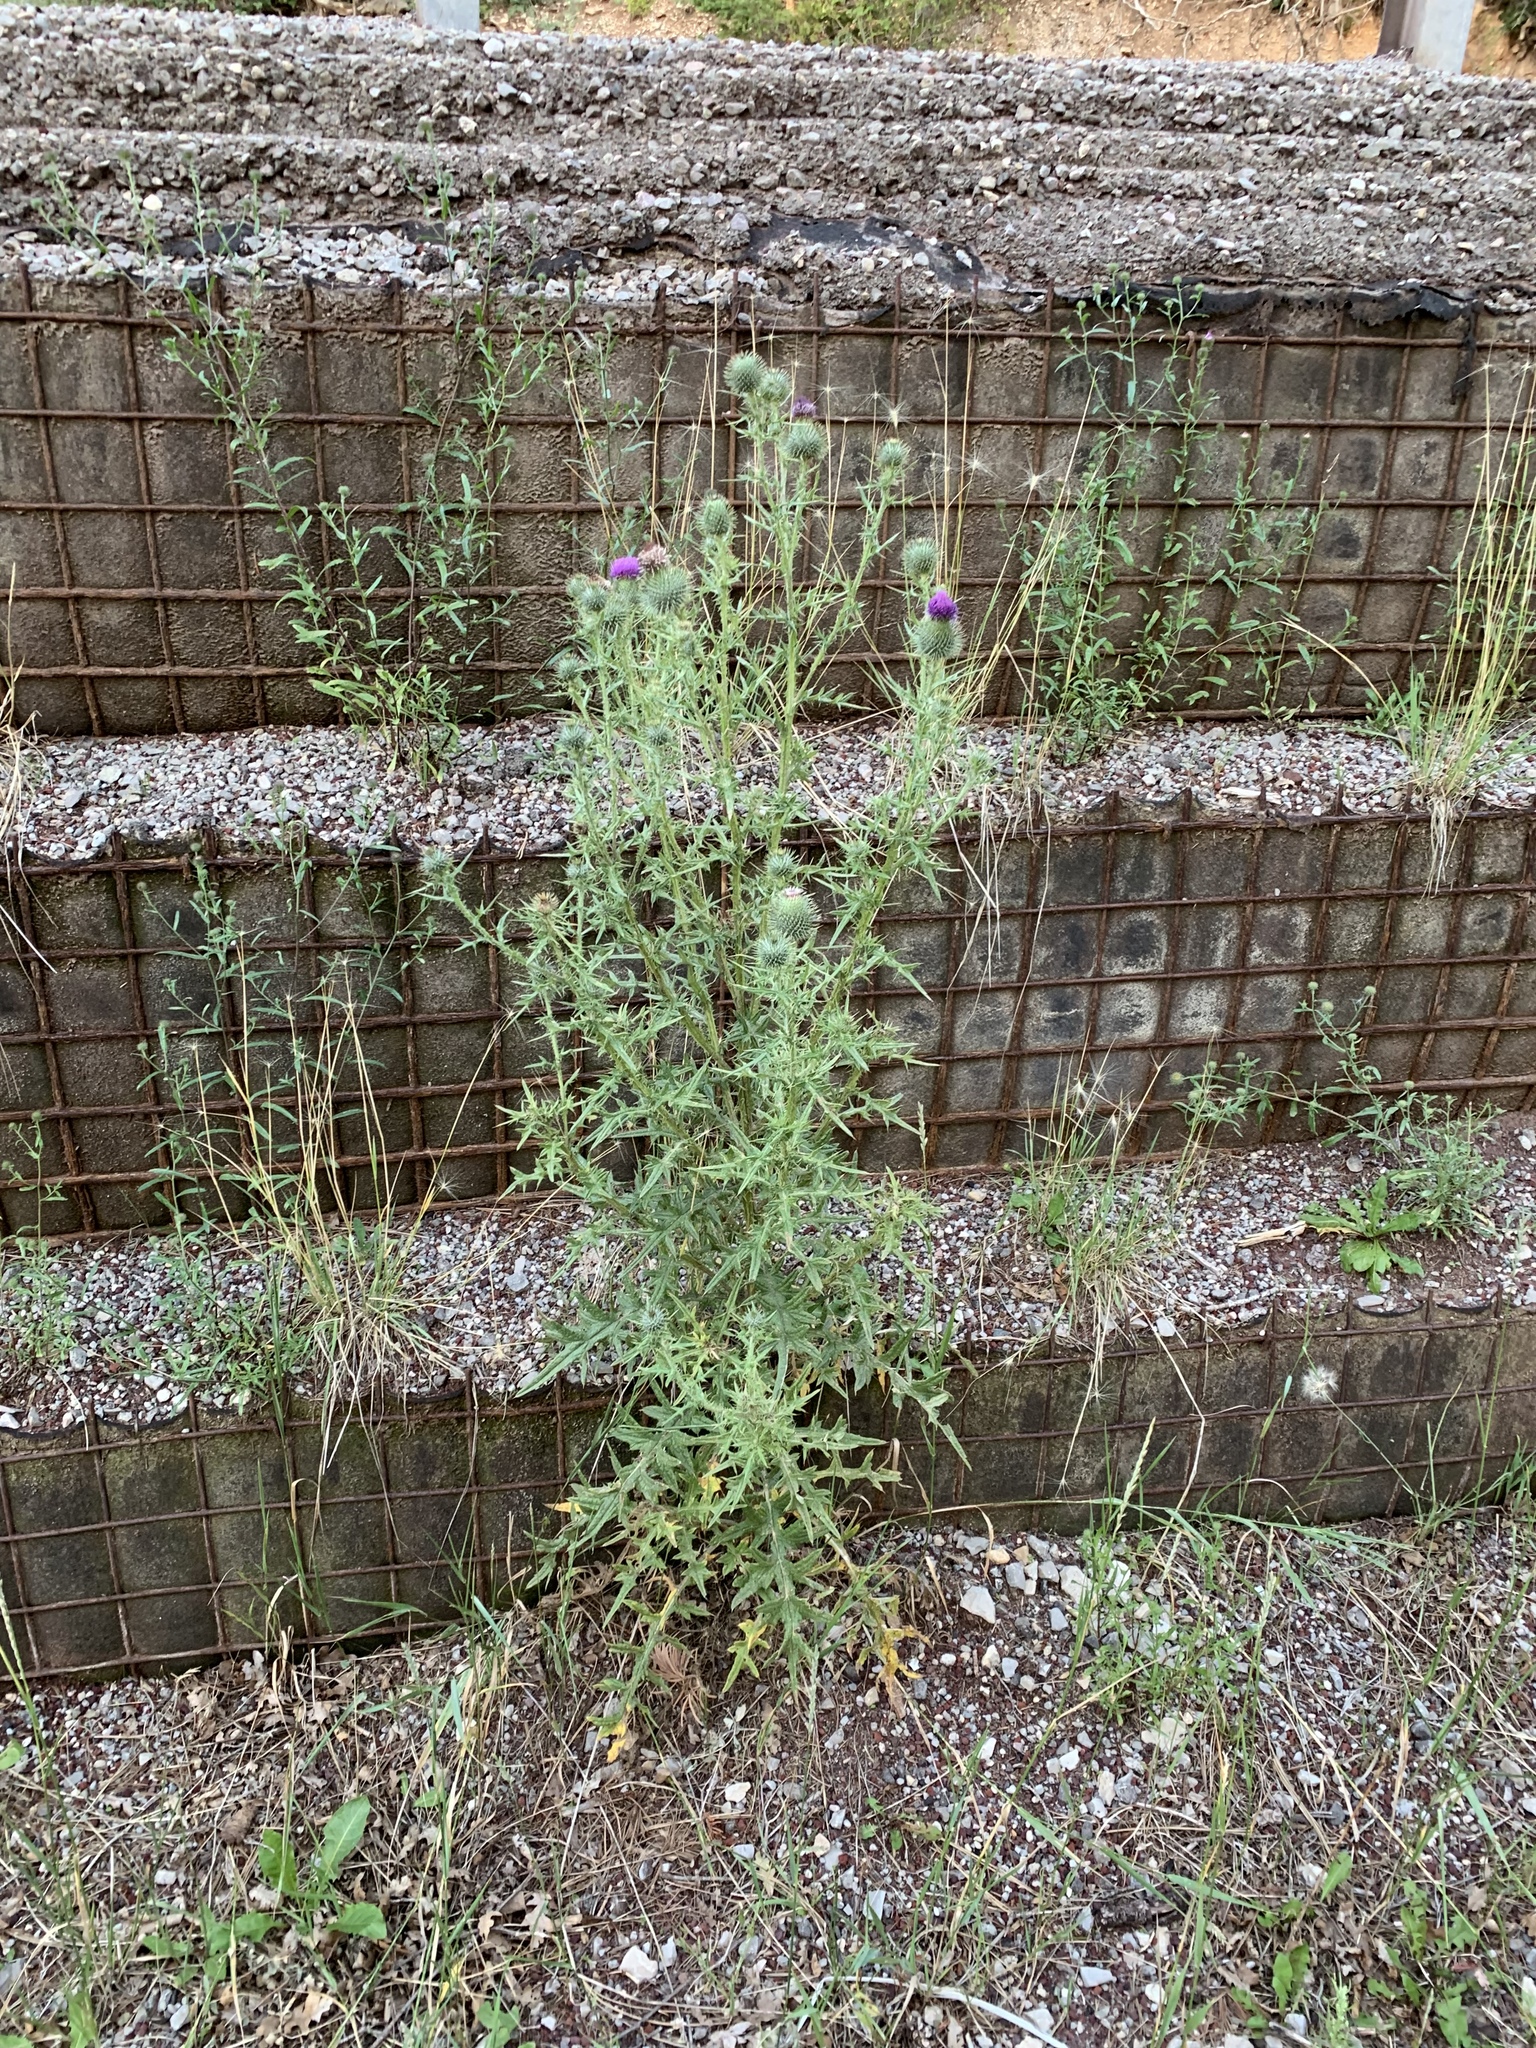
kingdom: Plantae
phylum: Tracheophyta
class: Magnoliopsida
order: Asterales
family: Asteraceae
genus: Cirsium
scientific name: Cirsium vulgare
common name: Bull thistle
